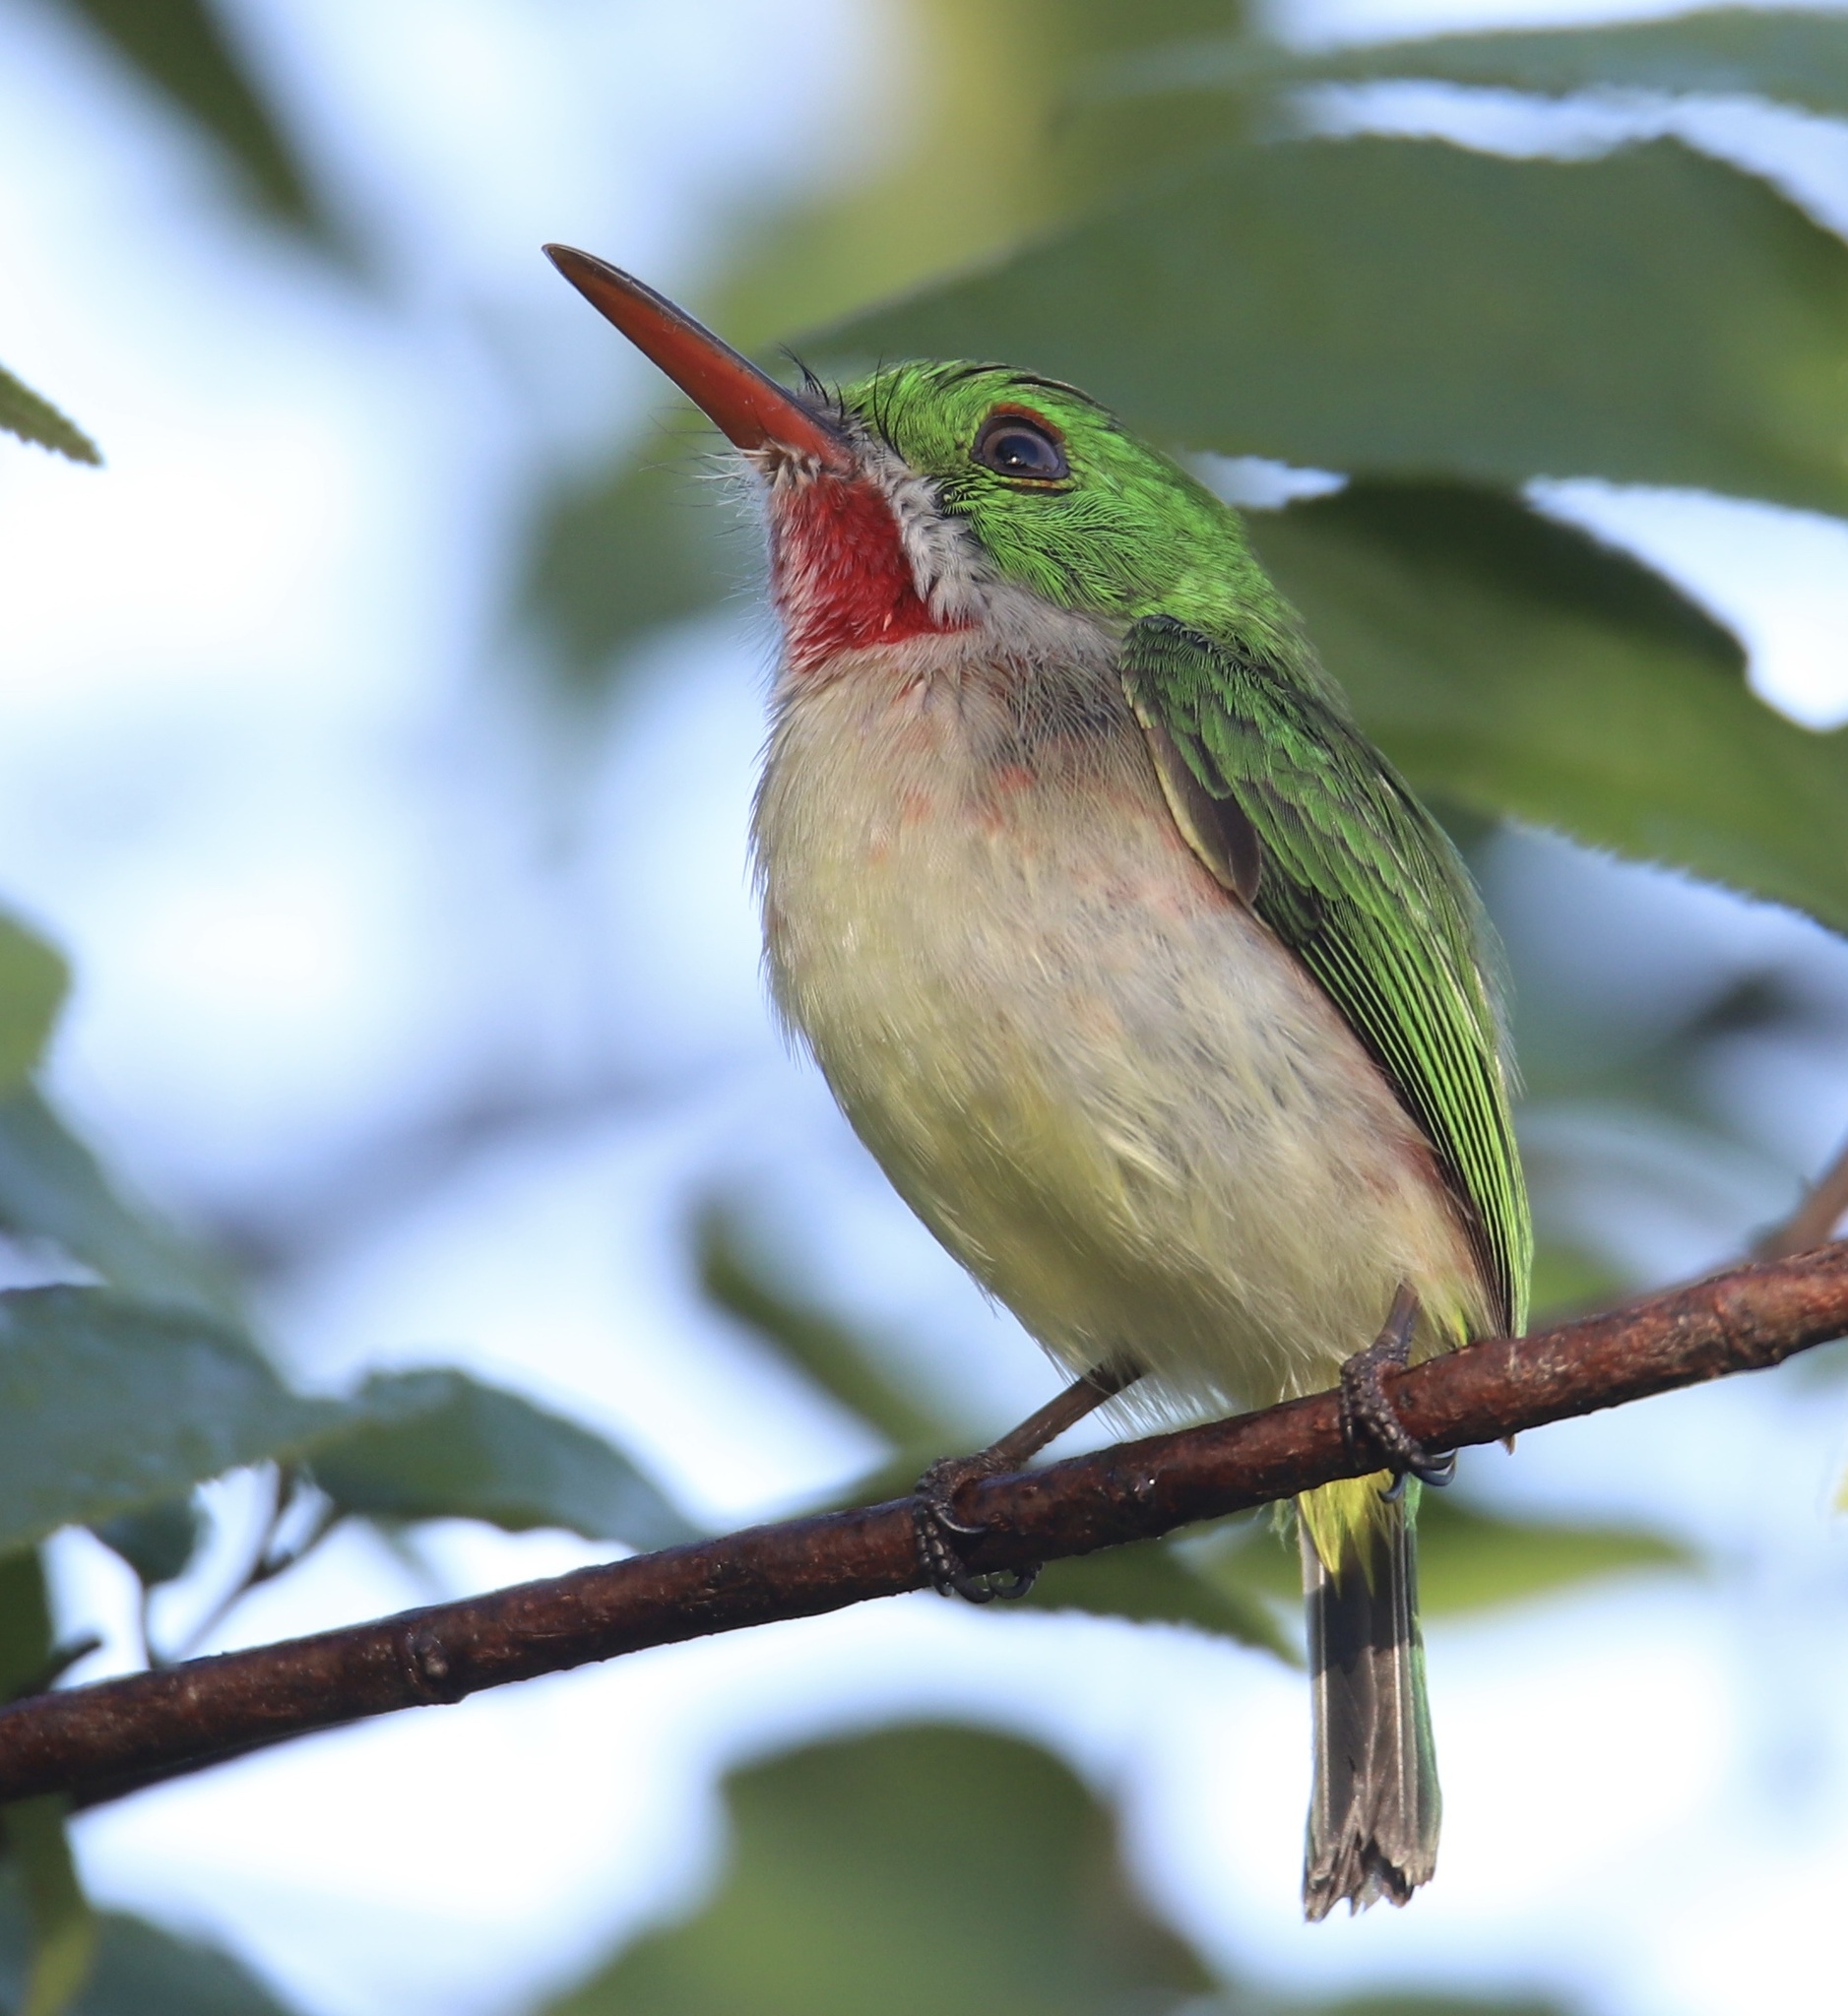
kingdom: Animalia
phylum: Chordata
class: Aves
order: Coraciiformes
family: Todidae
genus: Todus
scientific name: Todus subulatus
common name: Broad-billed tody
